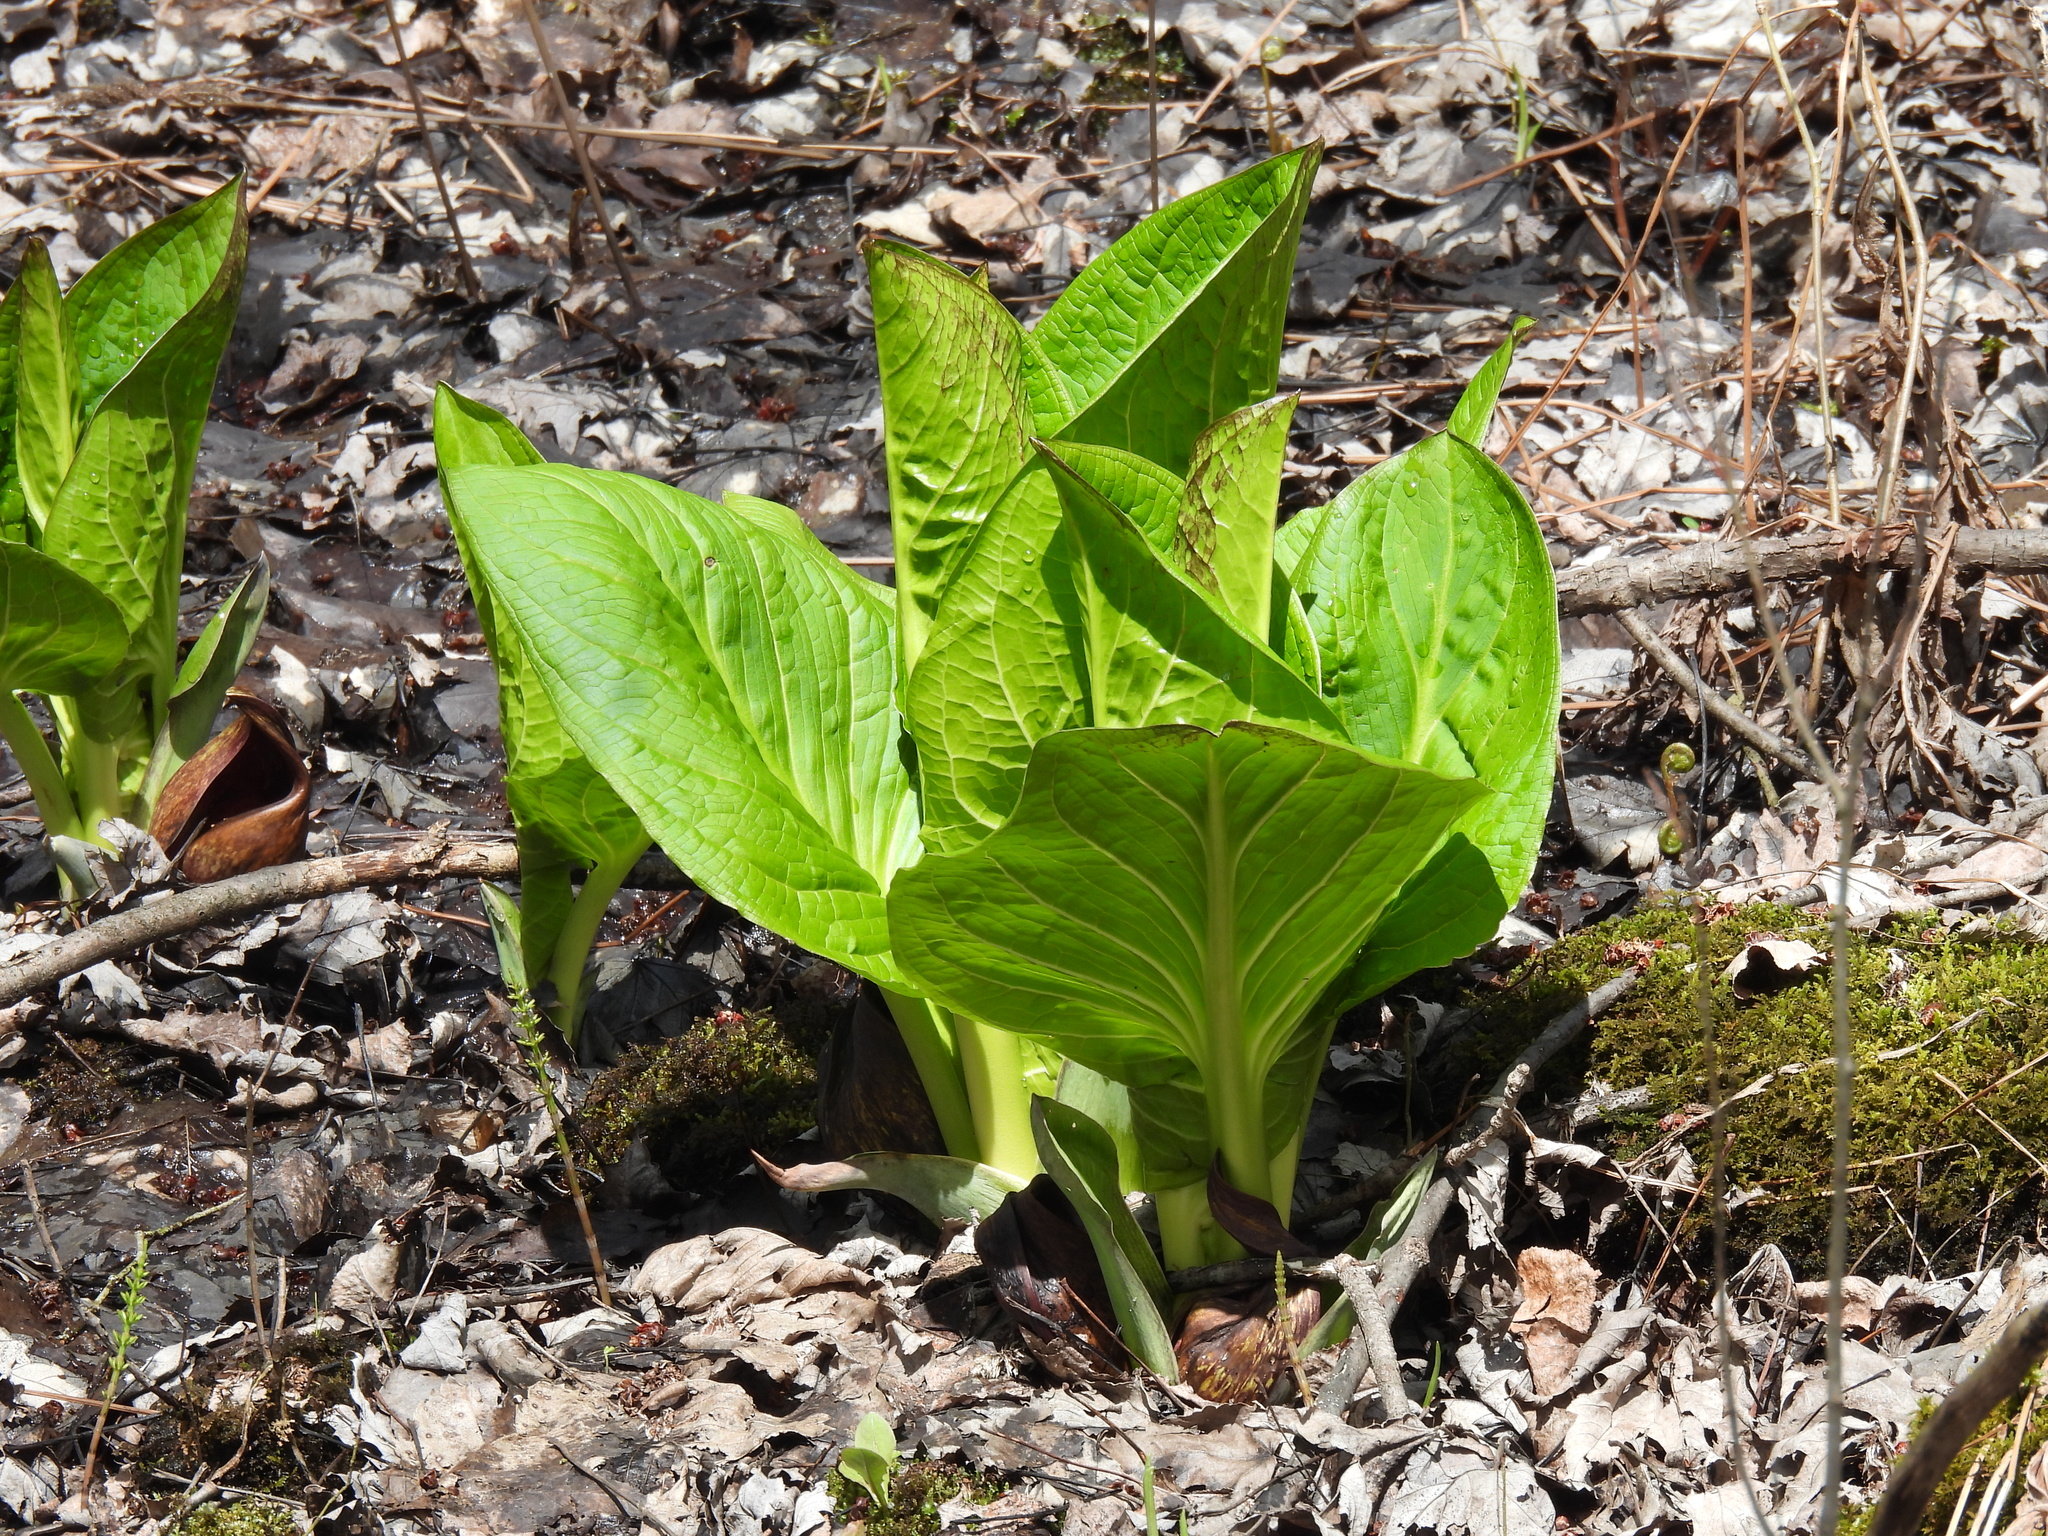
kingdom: Plantae
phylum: Tracheophyta
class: Liliopsida
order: Alismatales
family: Araceae
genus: Symplocarpus
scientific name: Symplocarpus foetidus
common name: Eastern skunk cabbage
